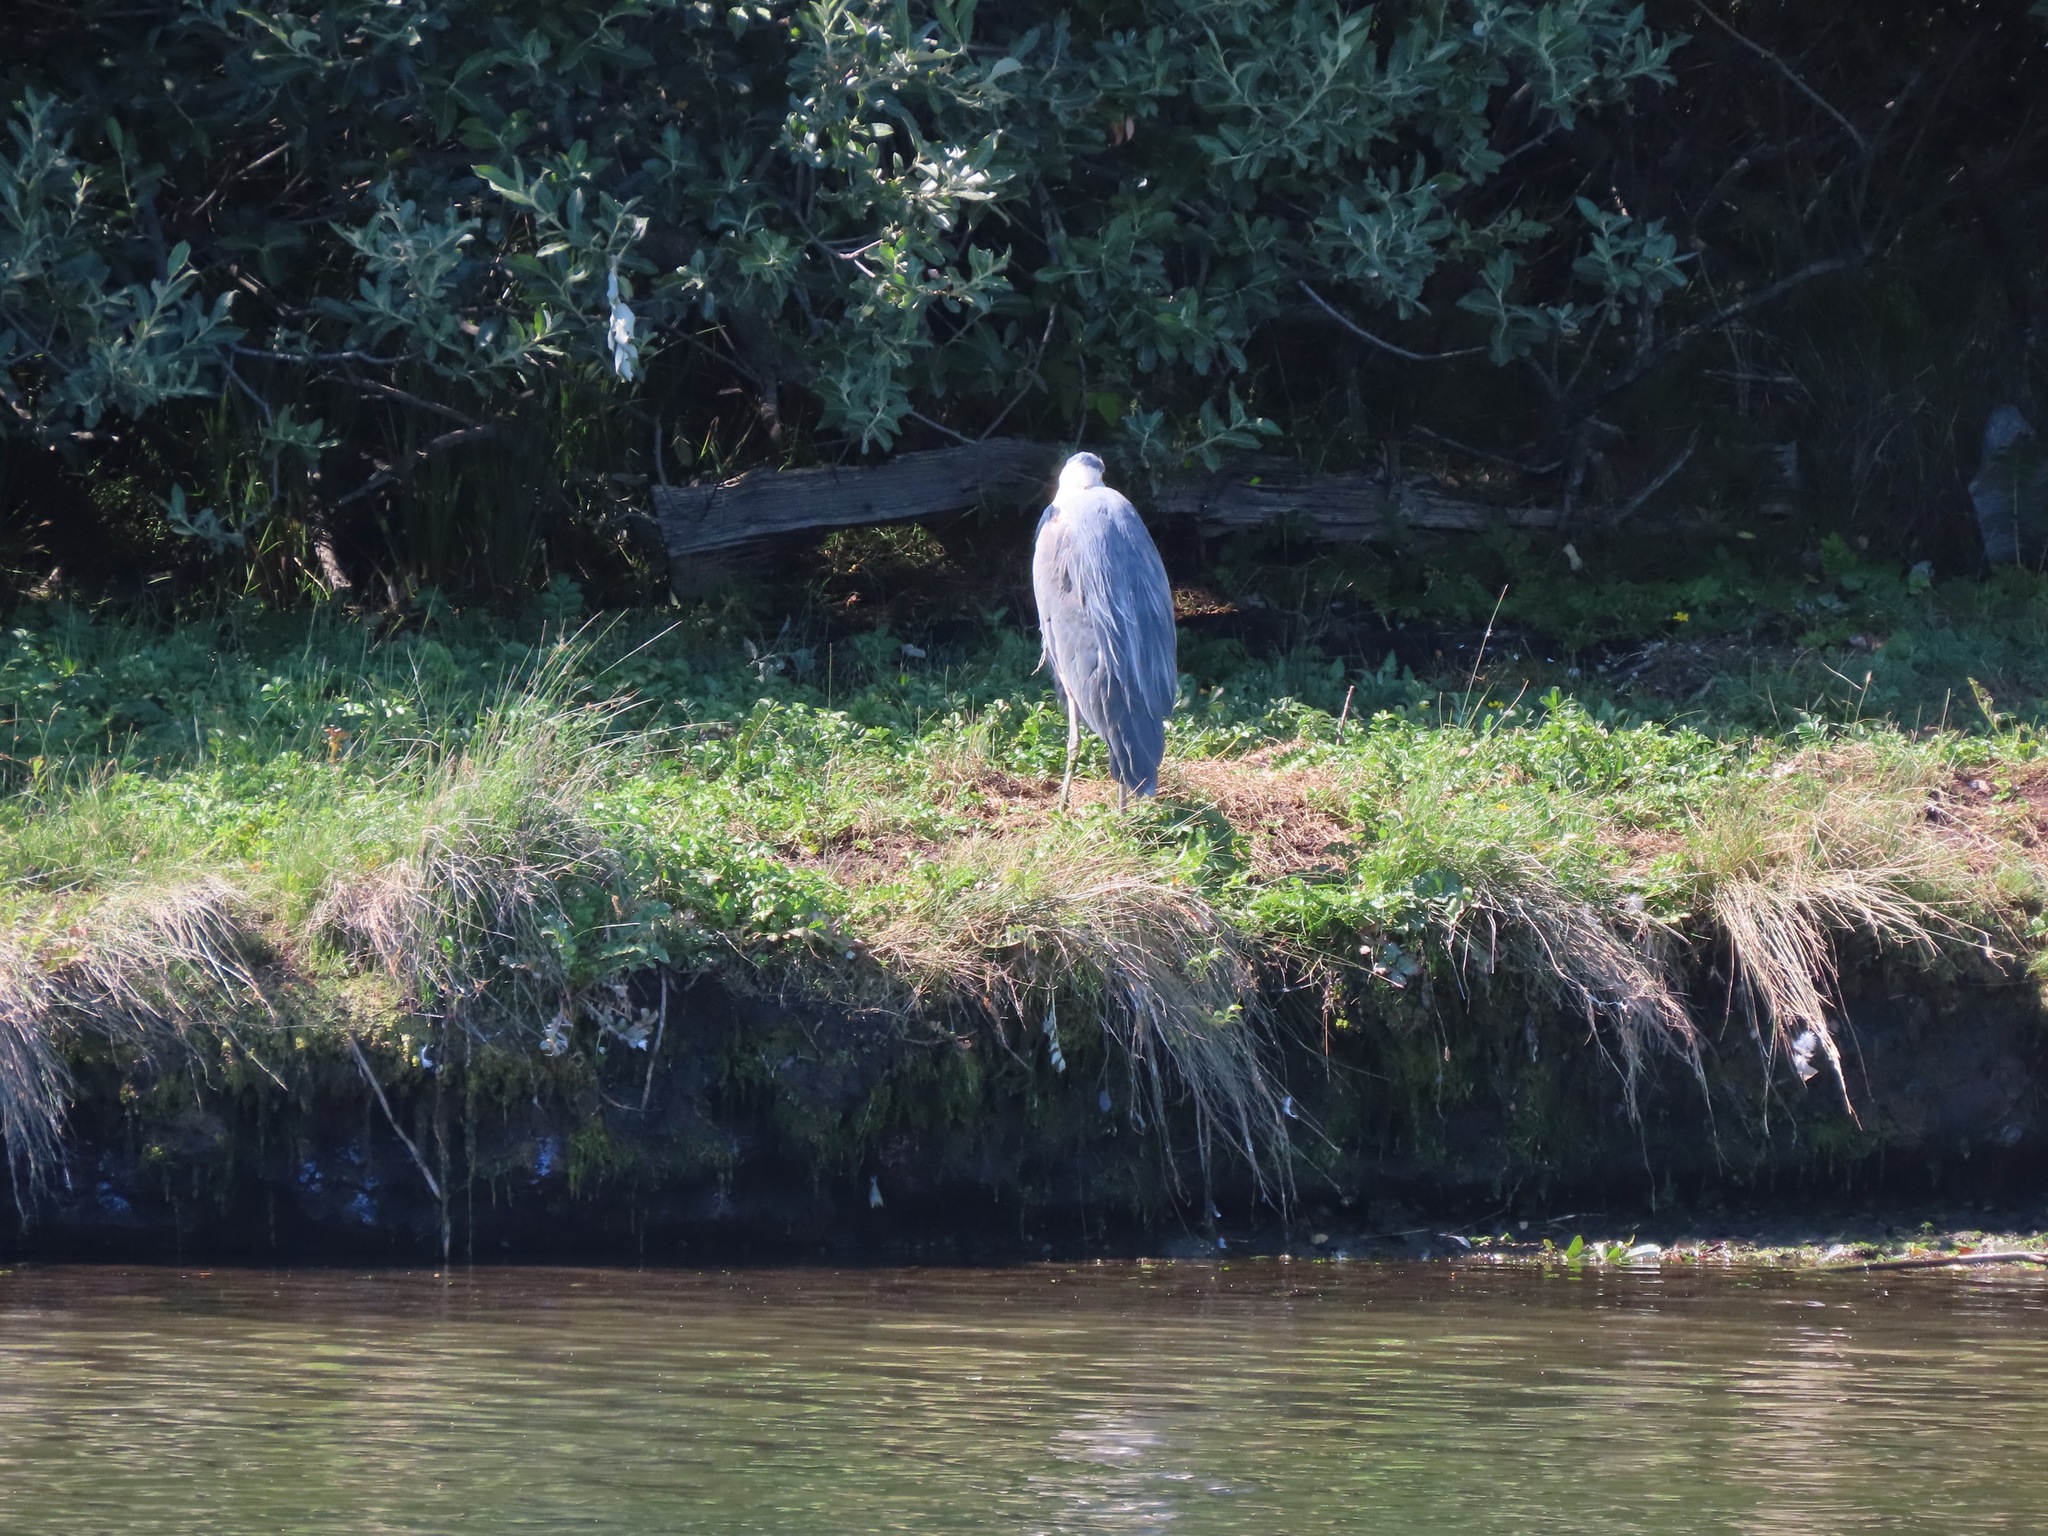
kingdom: Animalia
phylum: Chordata
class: Aves
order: Pelecaniformes
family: Ardeidae
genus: Ardea
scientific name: Ardea herodias
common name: Great blue heron
